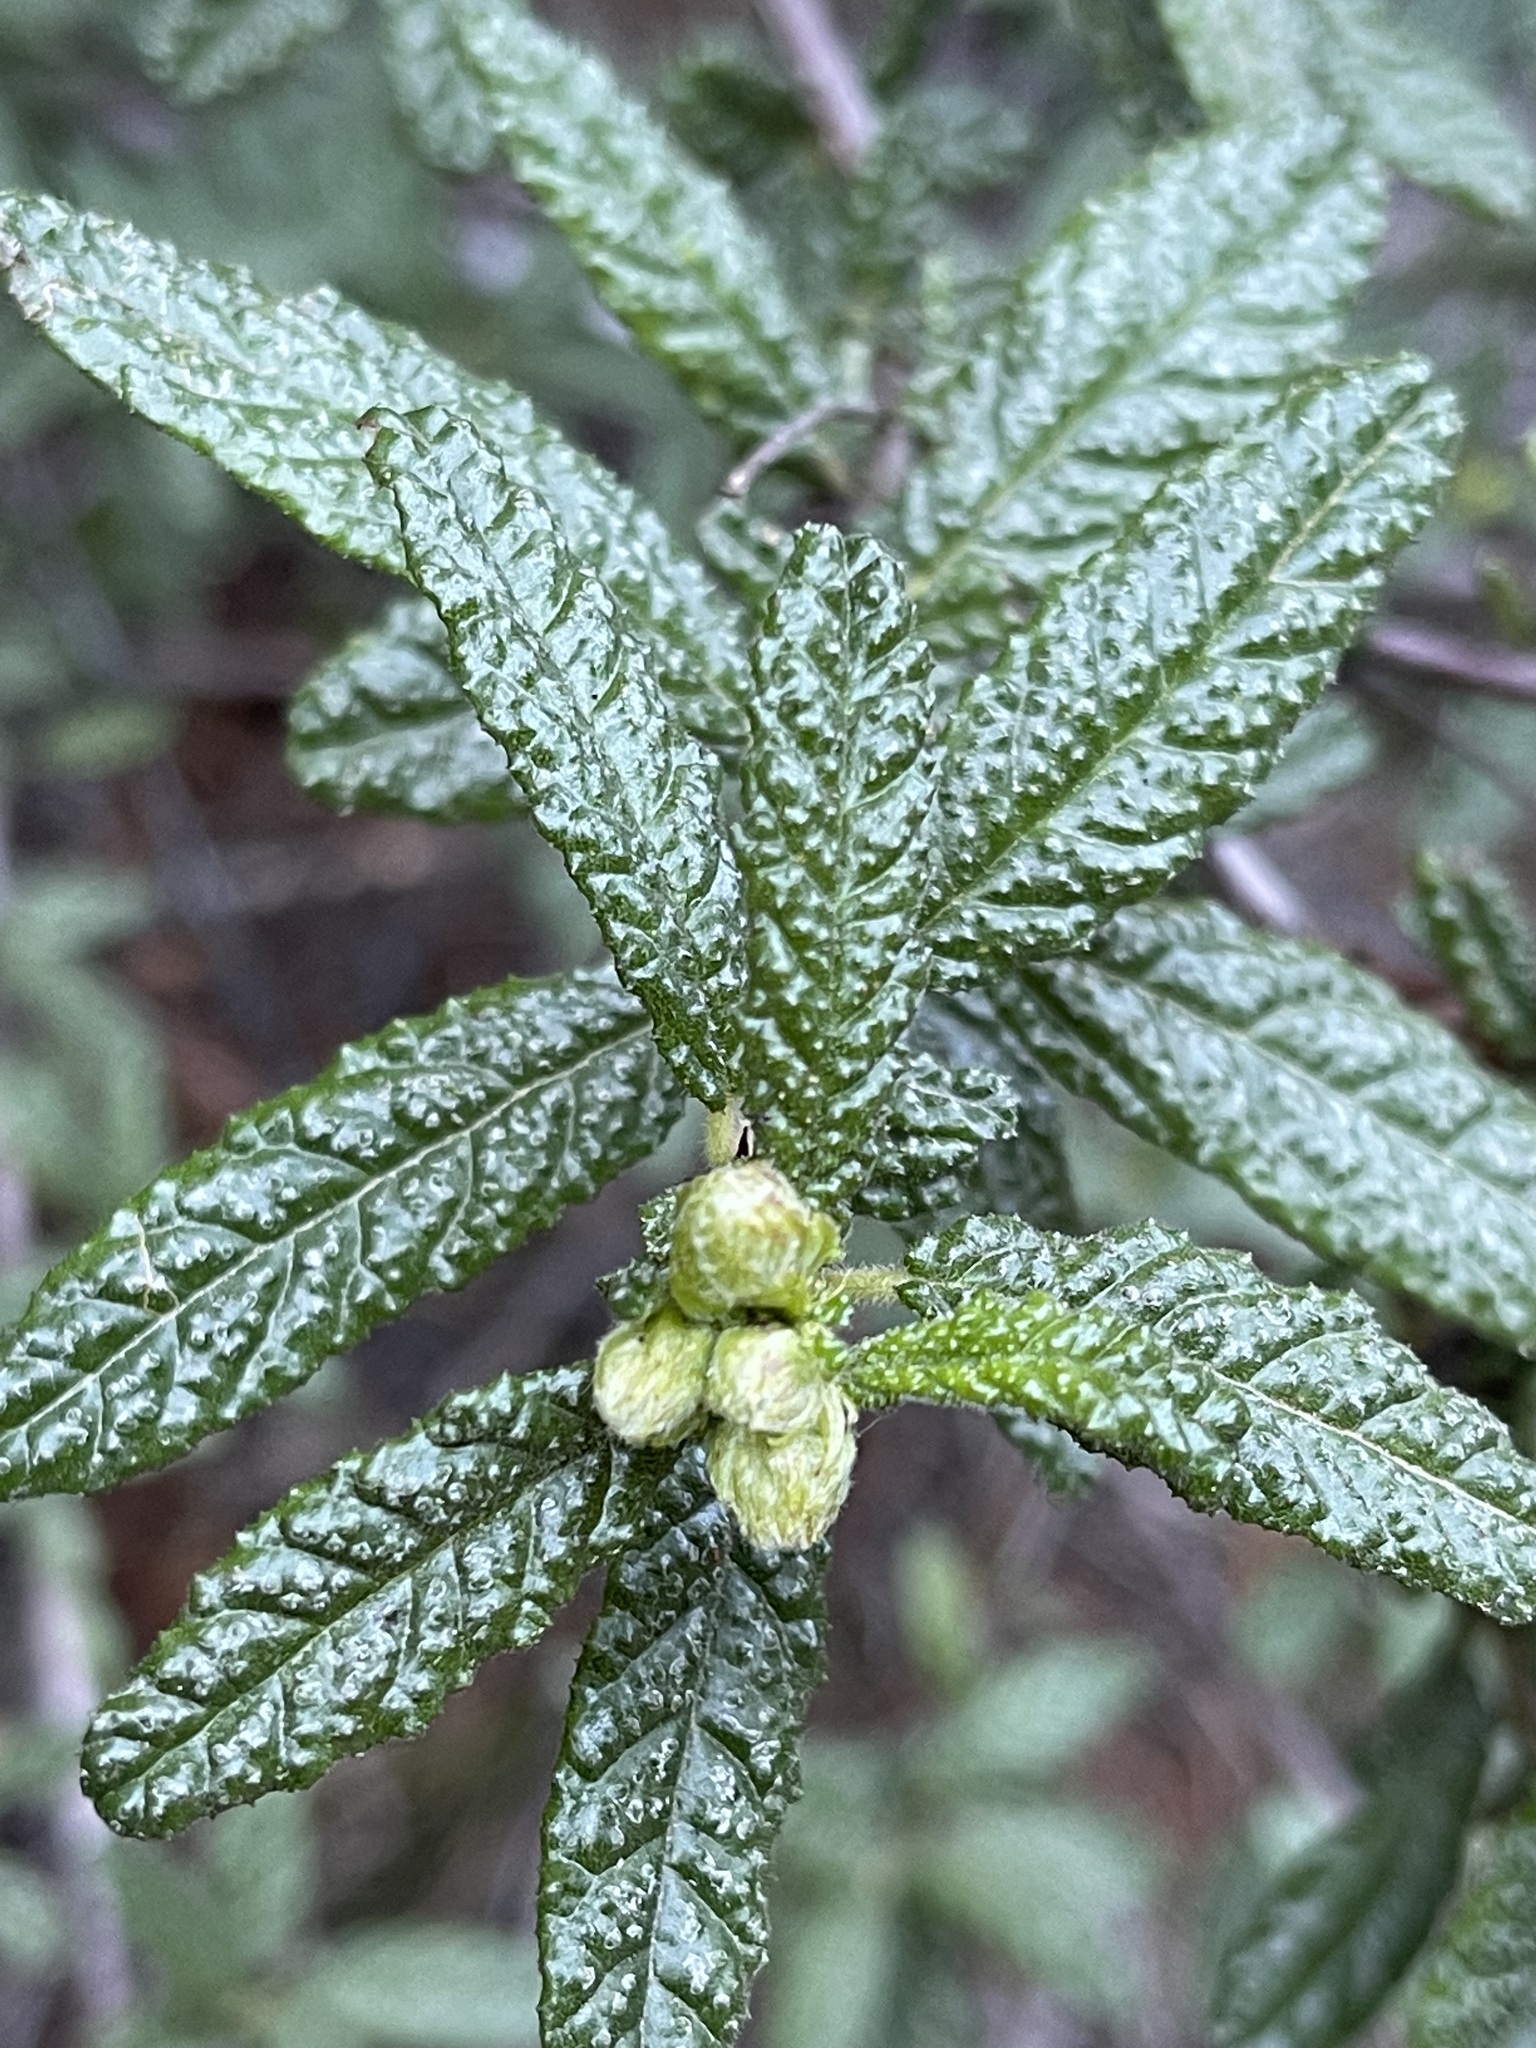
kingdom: Plantae
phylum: Tracheophyta
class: Magnoliopsida
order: Rosales
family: Rhamnaceae
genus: Ceanothus
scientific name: Ceanothus papillosus
